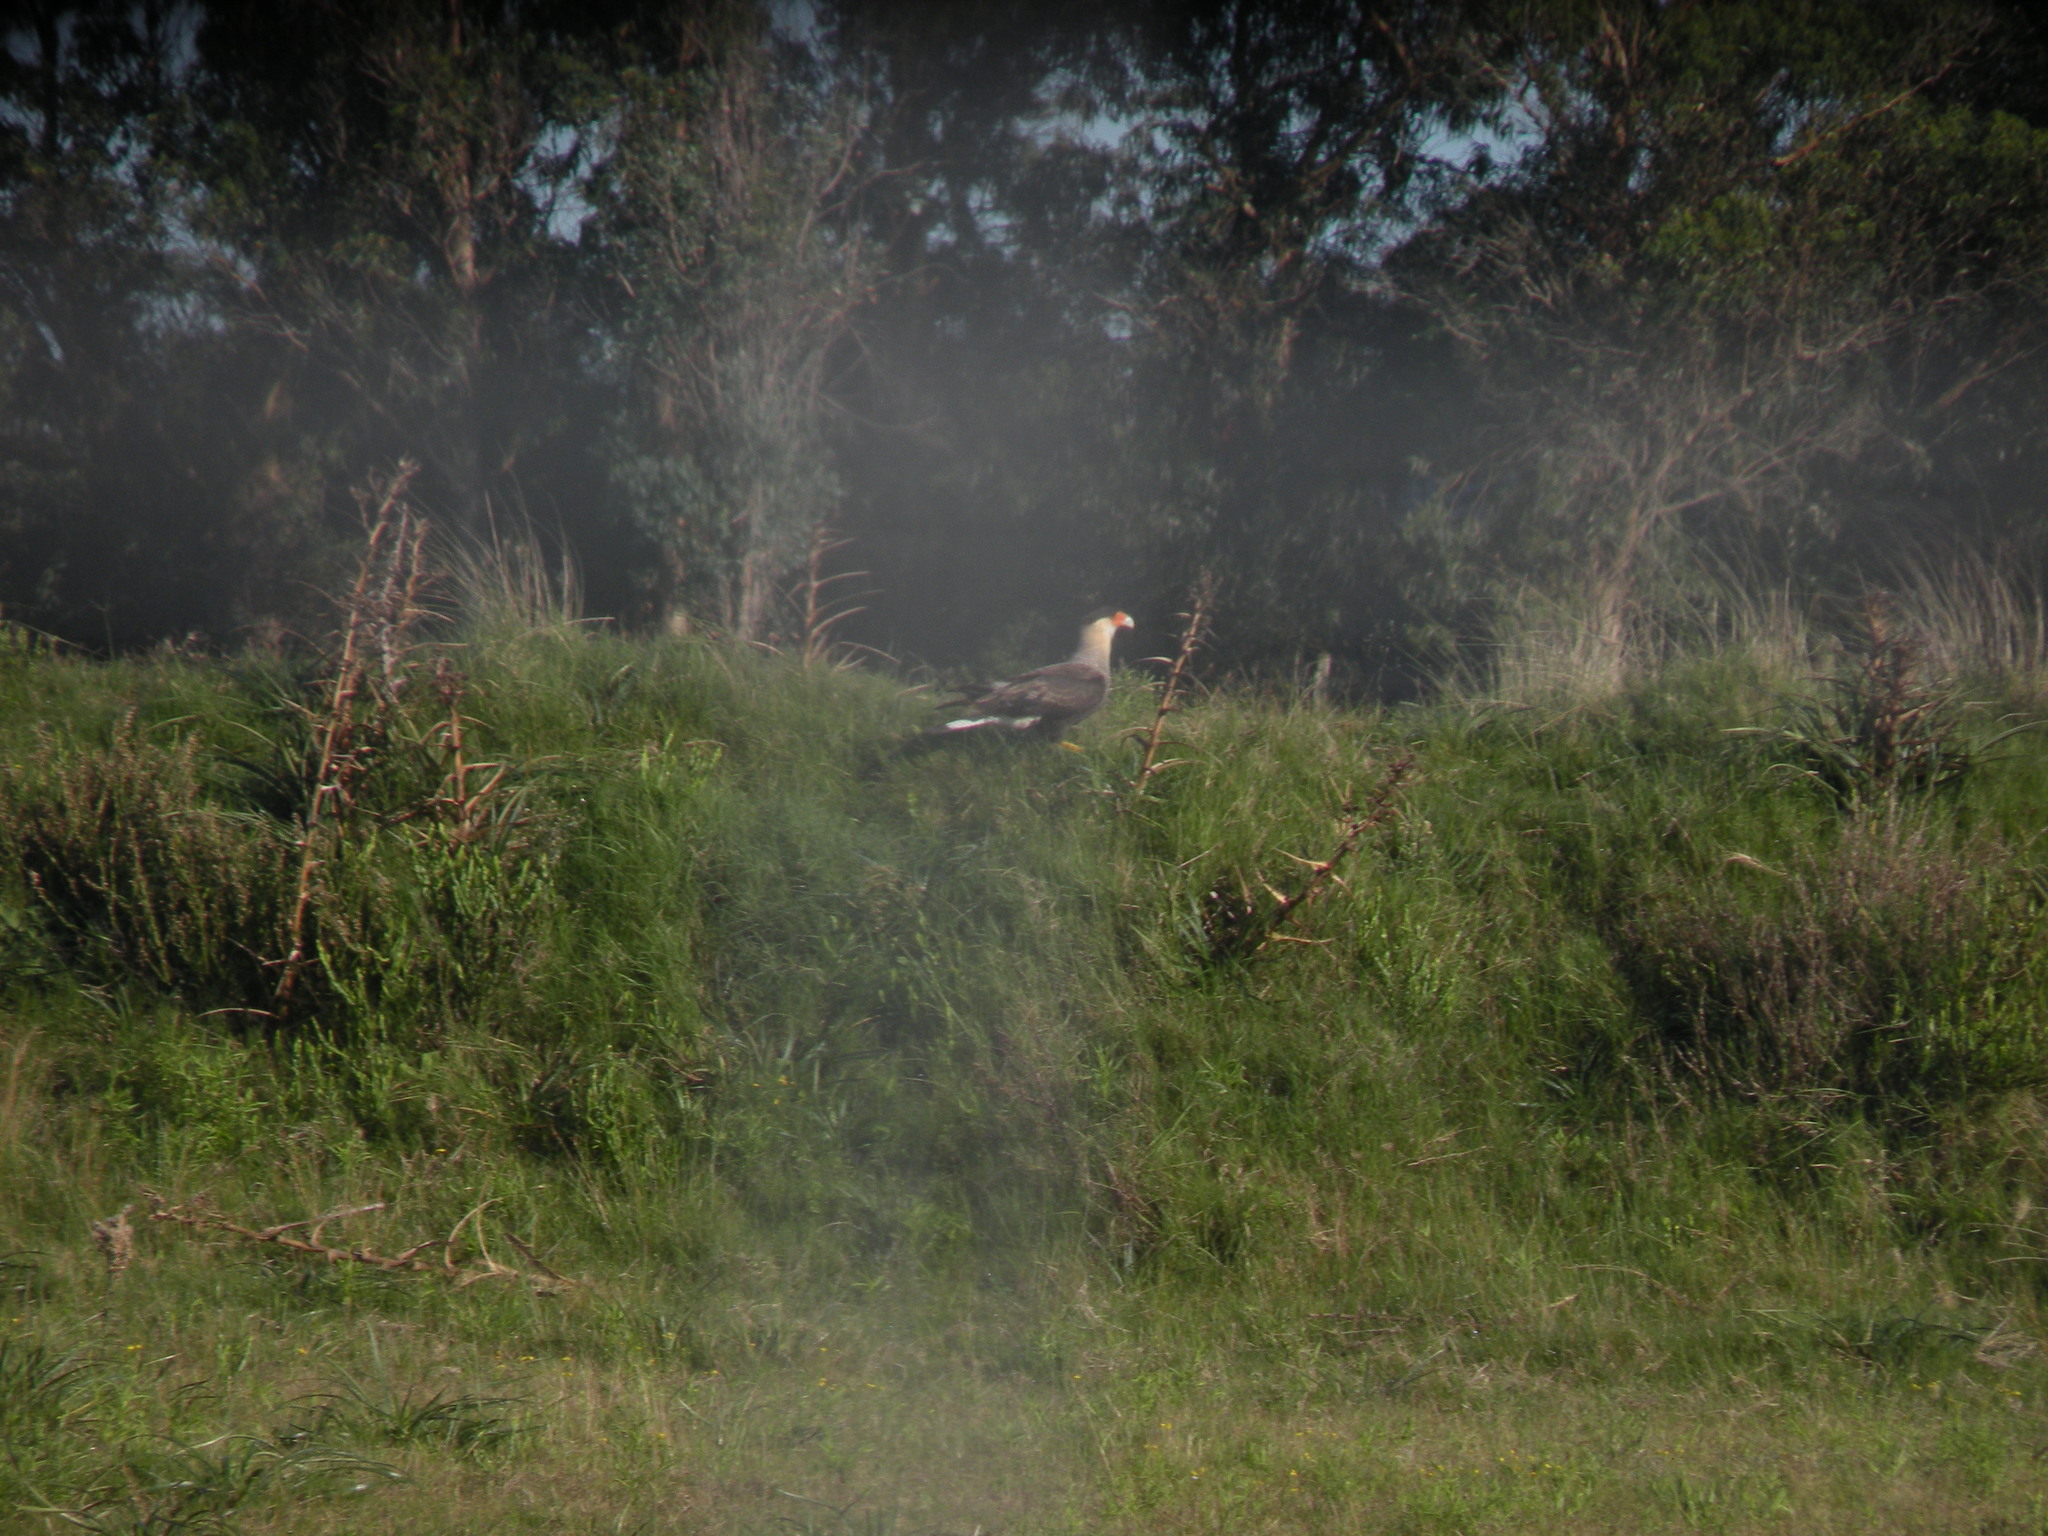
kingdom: Animalia
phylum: Chordata
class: Aves
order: Falconiformes
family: Falconidae
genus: Caracara
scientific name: Caracara plancus
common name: Southern caracara
